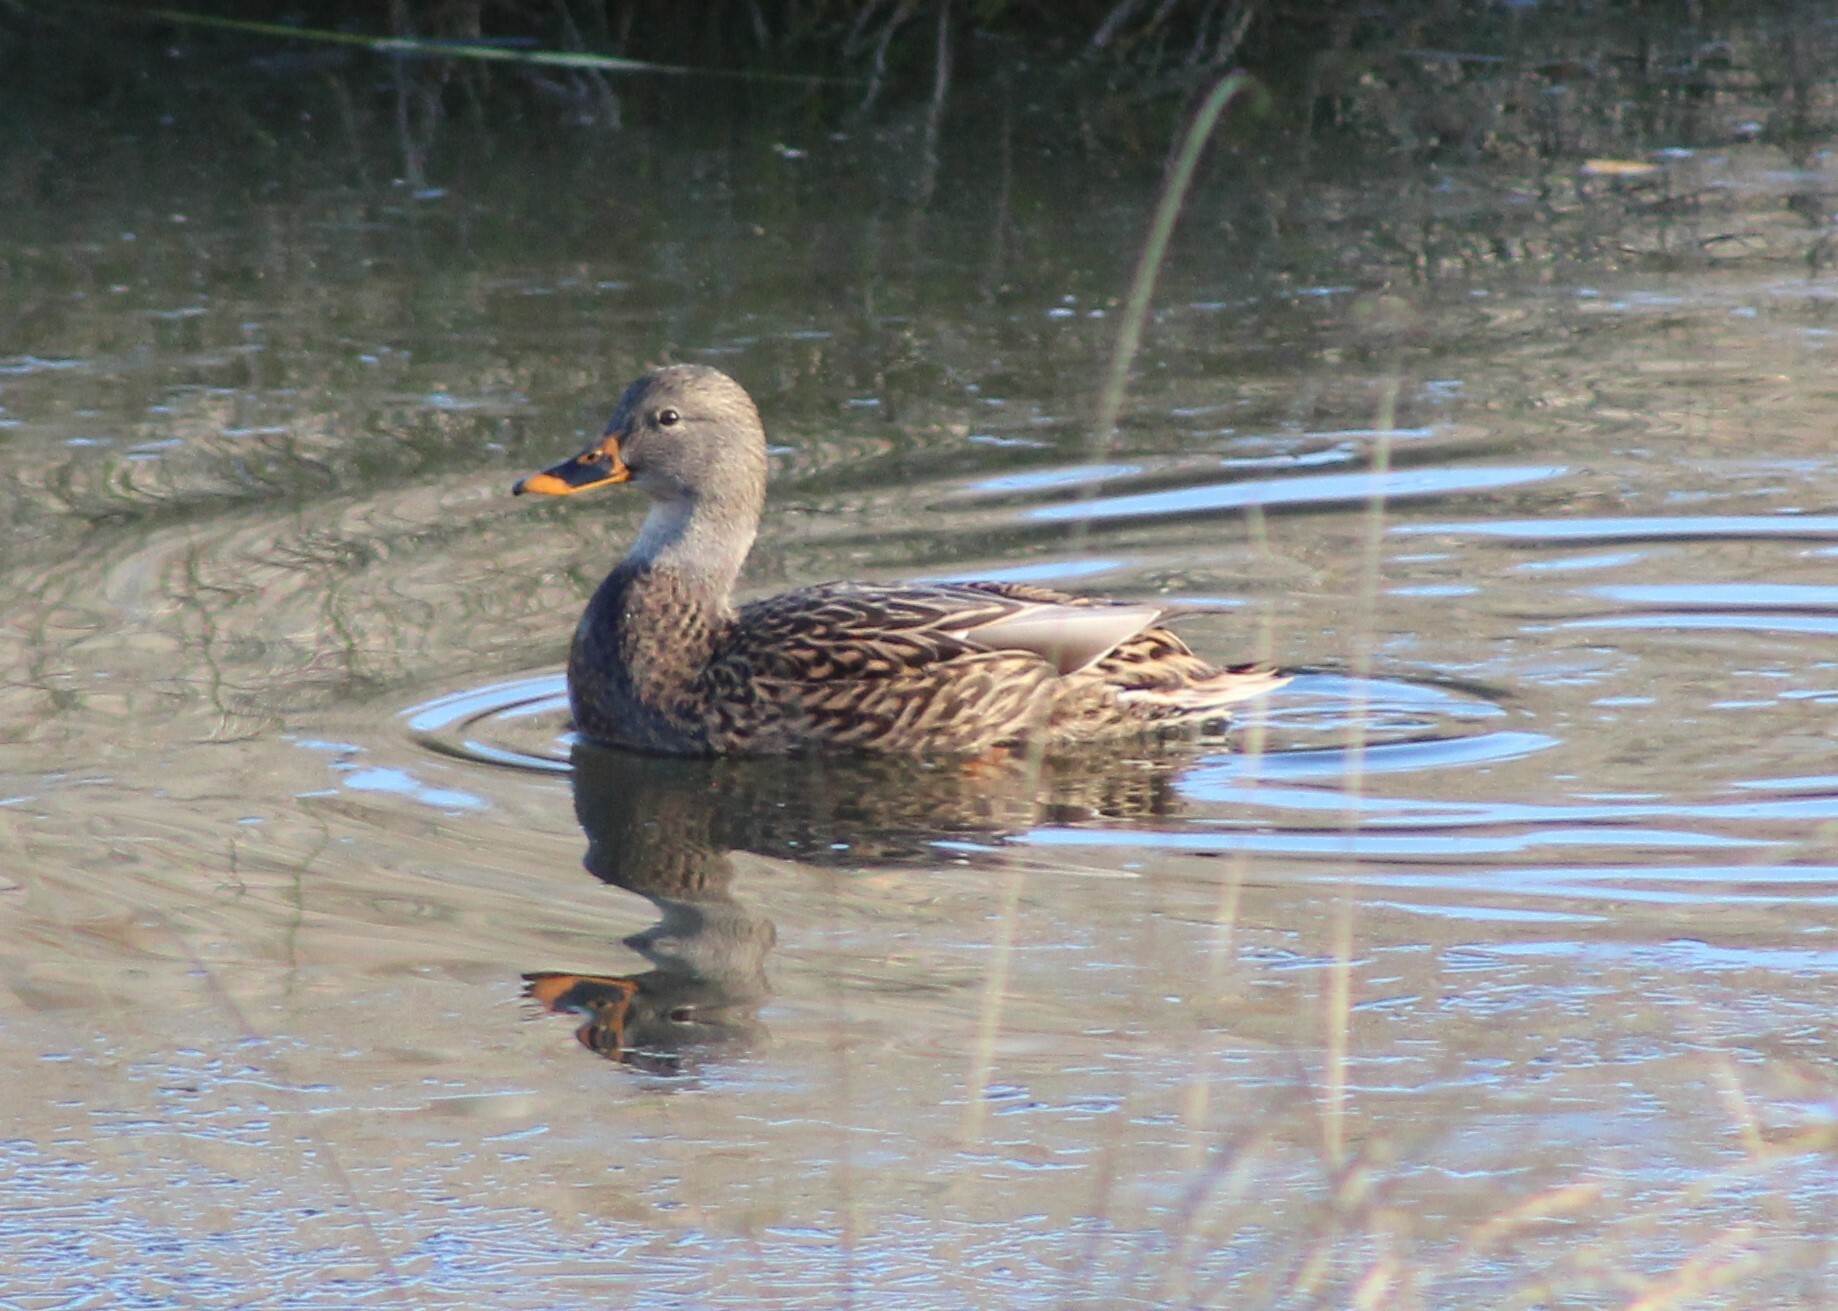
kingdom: Animalia
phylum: Chordata
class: Aves
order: Anseriformes
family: Anatidae
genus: Anas
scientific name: Anas platyrhynchos
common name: Mallard
